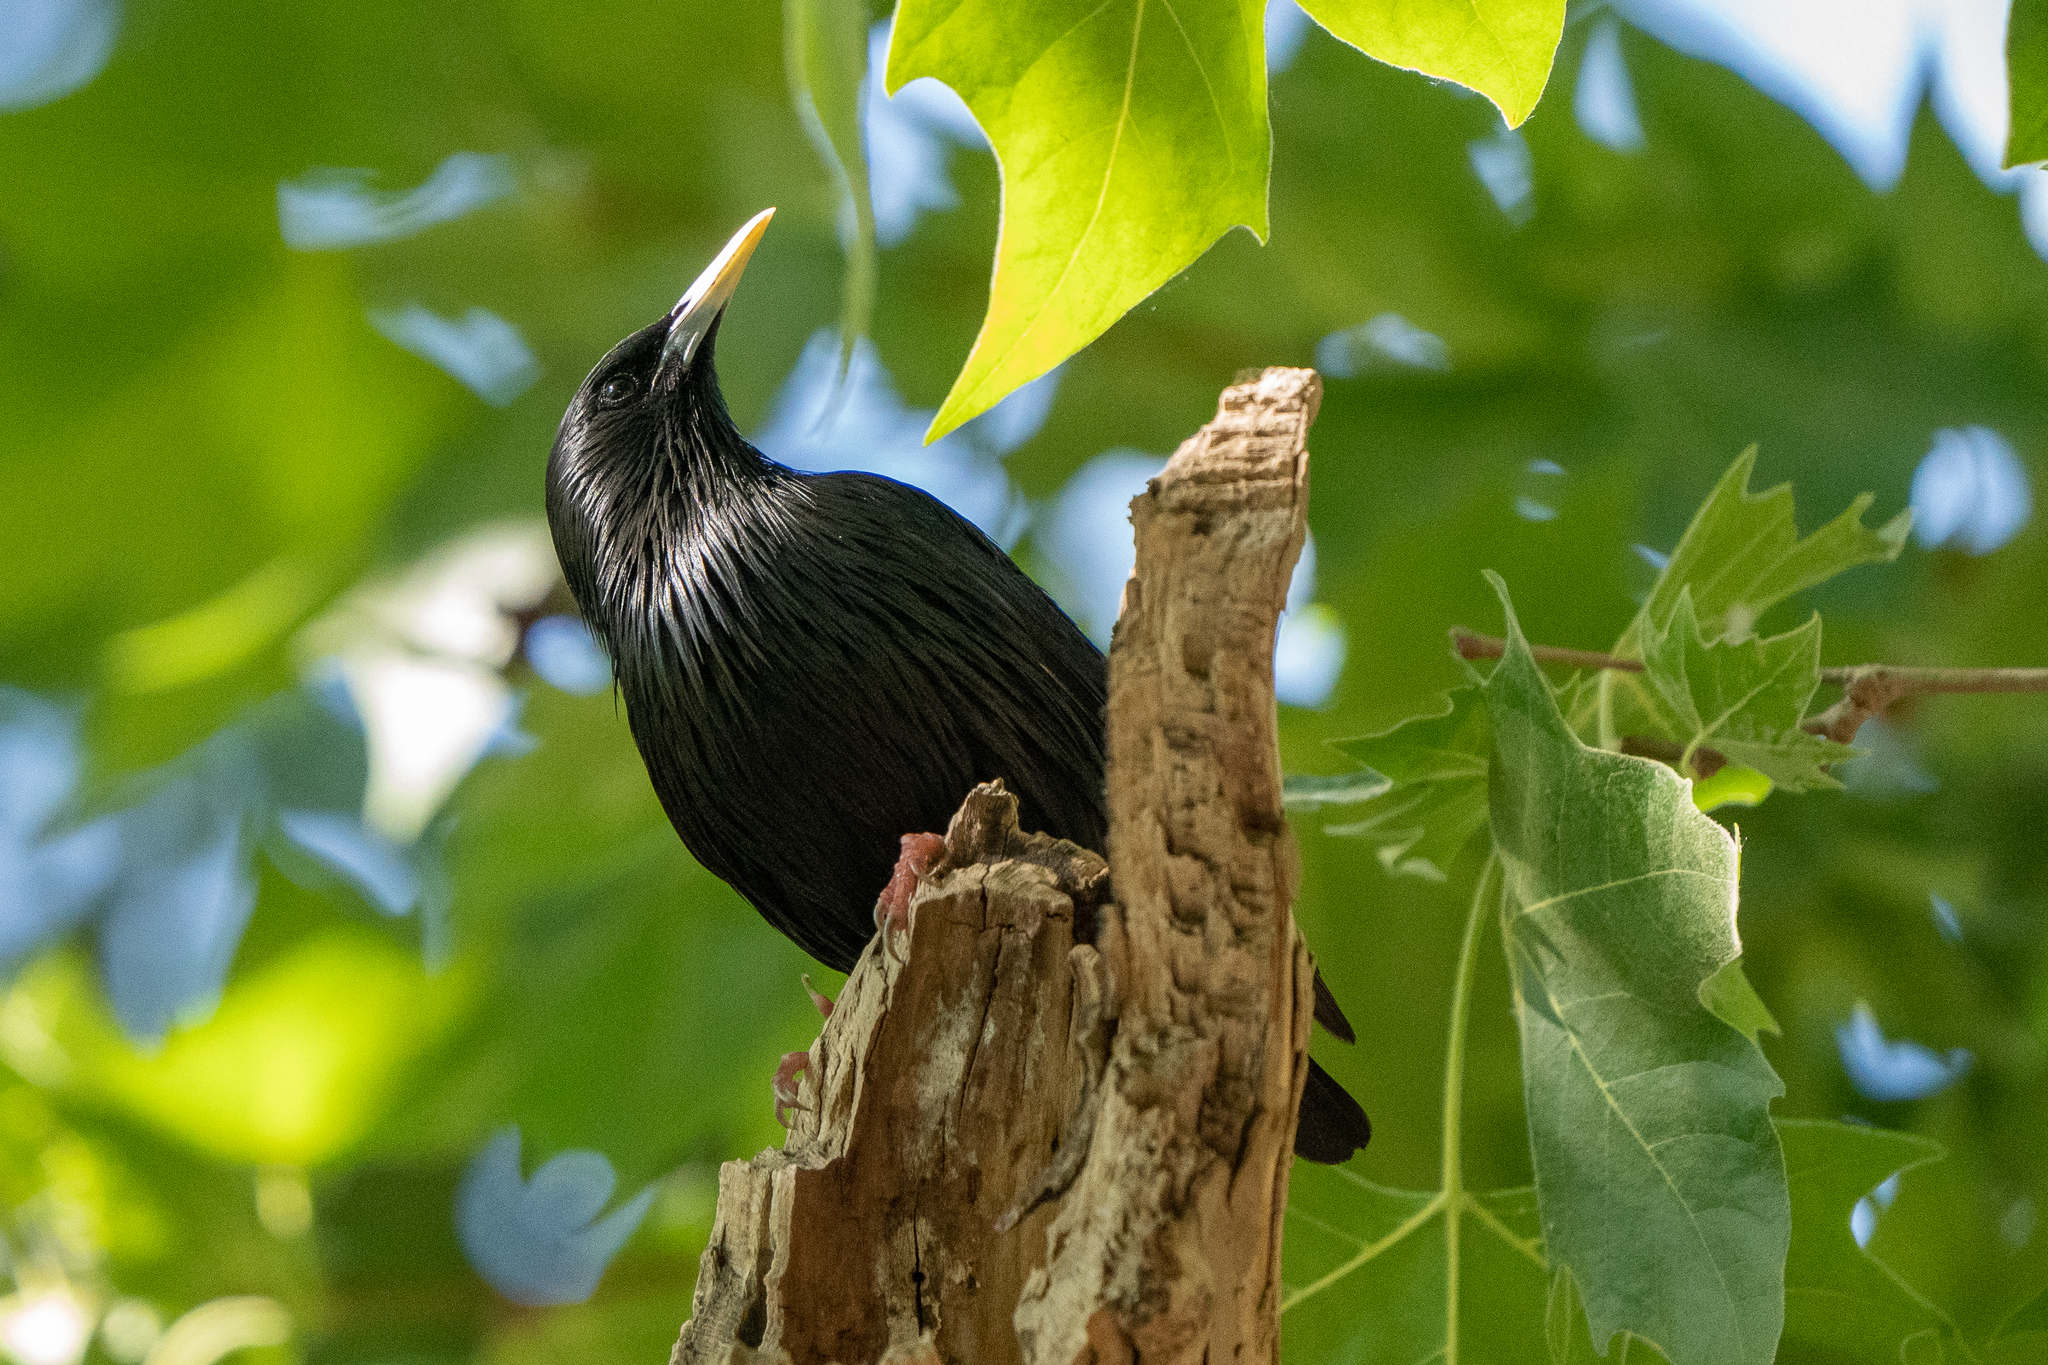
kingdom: Animalia
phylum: Chordata
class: Aves
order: Passeriformes
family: Sturnidae
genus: Sturnus
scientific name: Sturnus unicolor
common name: Spotless starling
